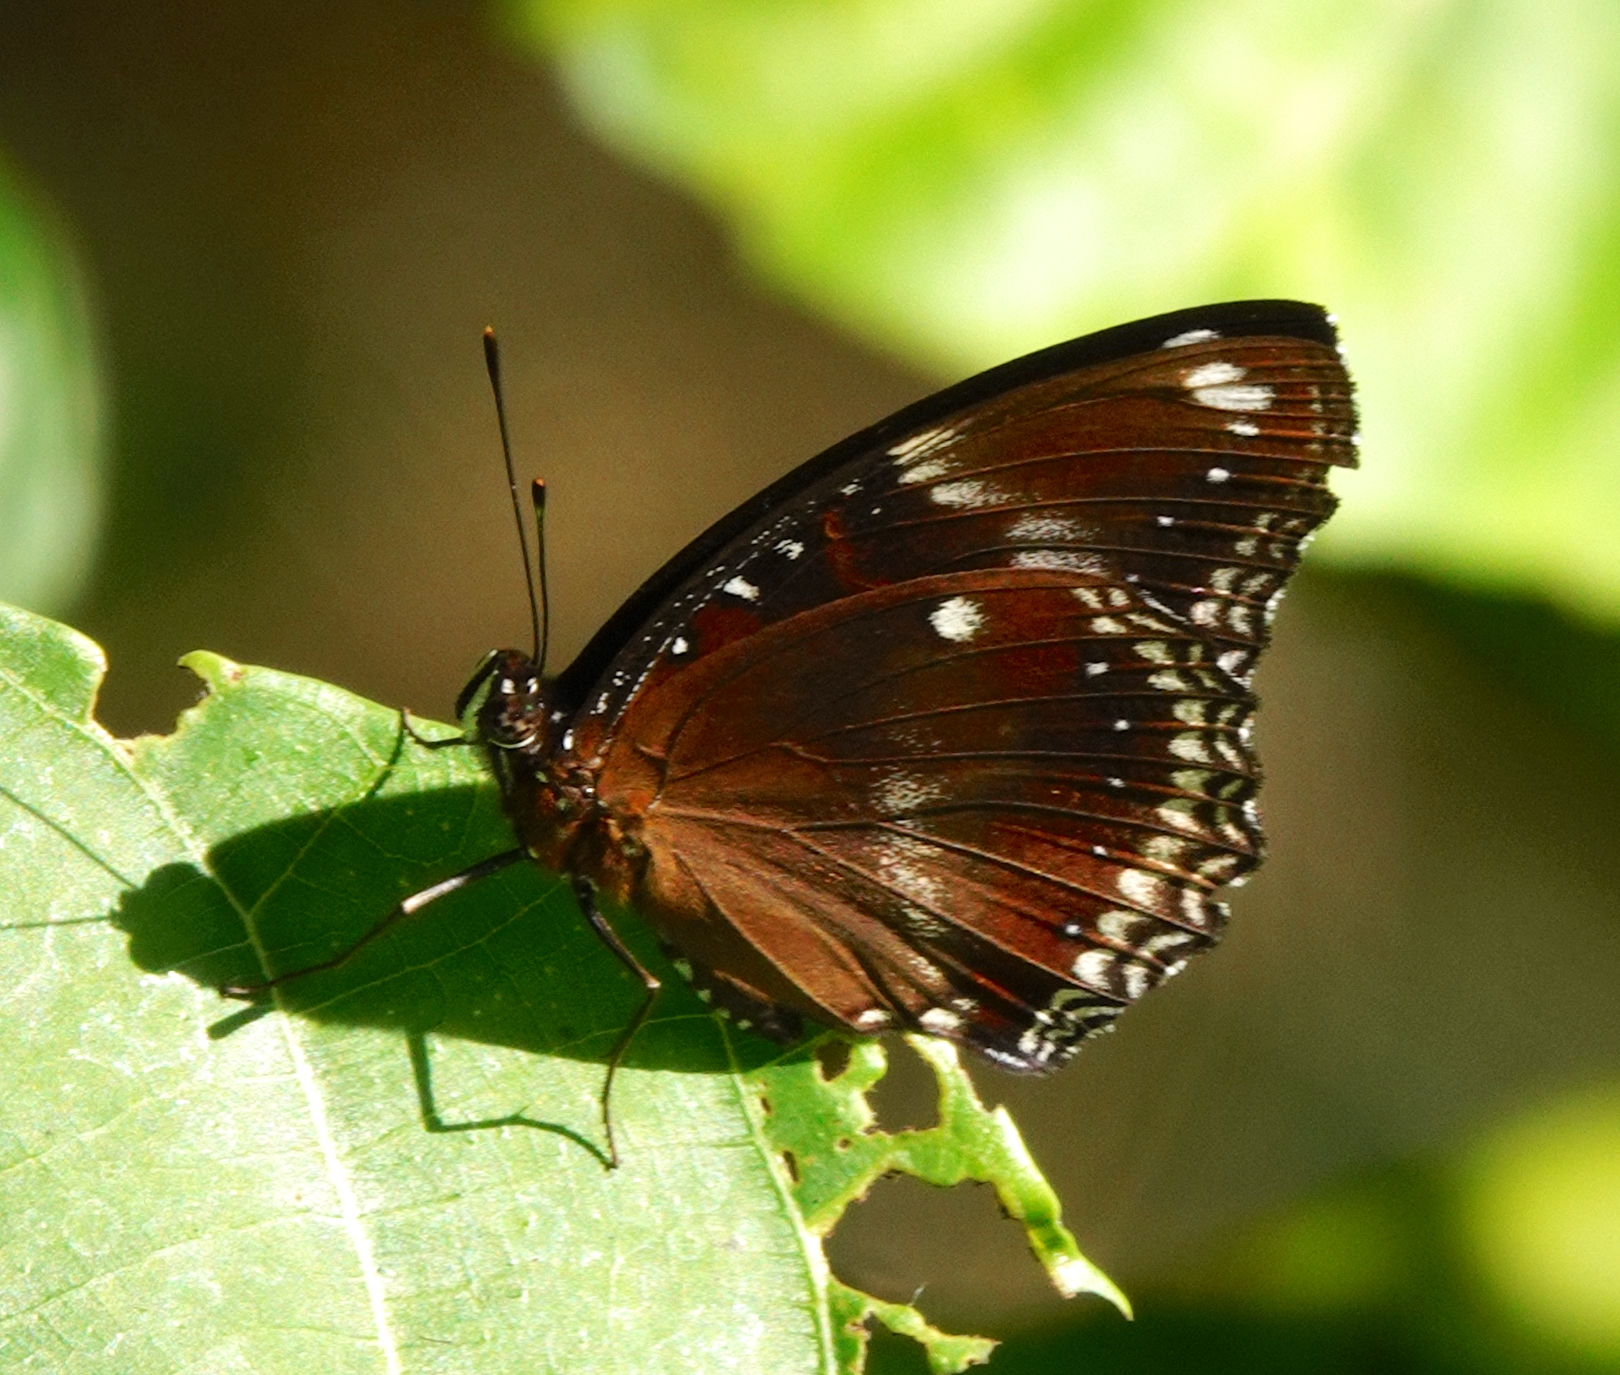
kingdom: Animalia
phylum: Arthropoda
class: Insecta
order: Lepidoptera
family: Nymphalidae
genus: Hypolimnas
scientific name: Hypolimnas bolina
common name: Great eggfly
